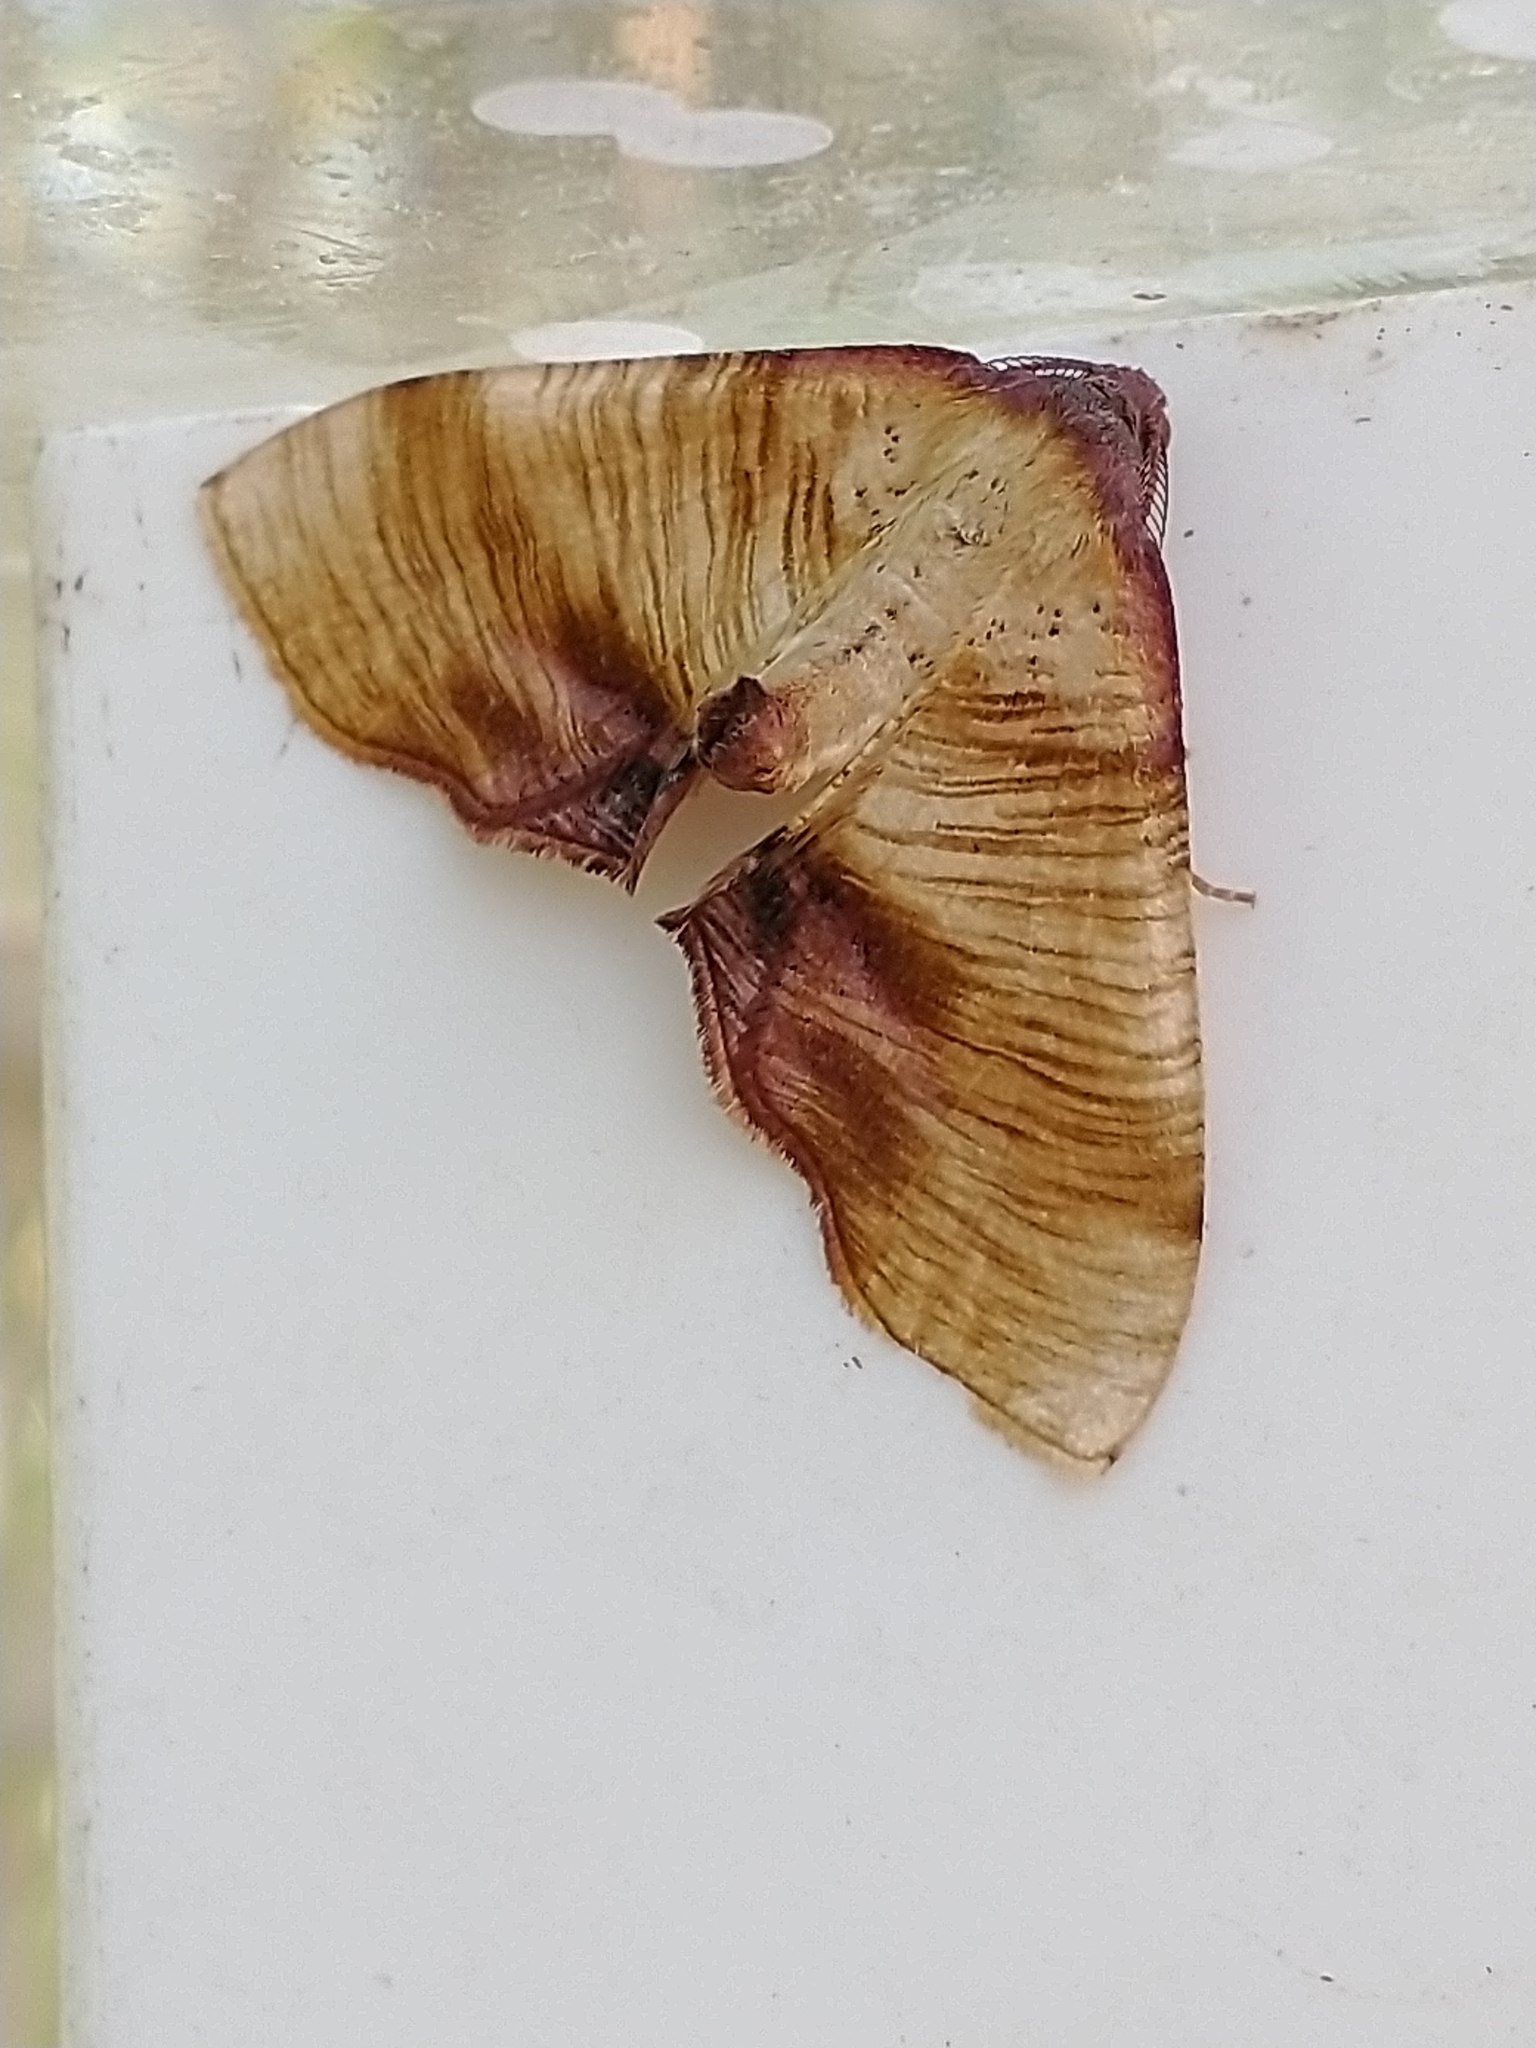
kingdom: Animalia
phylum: Arthropoda
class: Insecta
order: Lepidoptera
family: Geometridae
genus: Plagodis
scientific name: Plagodis dolabraria
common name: Scorched wing
